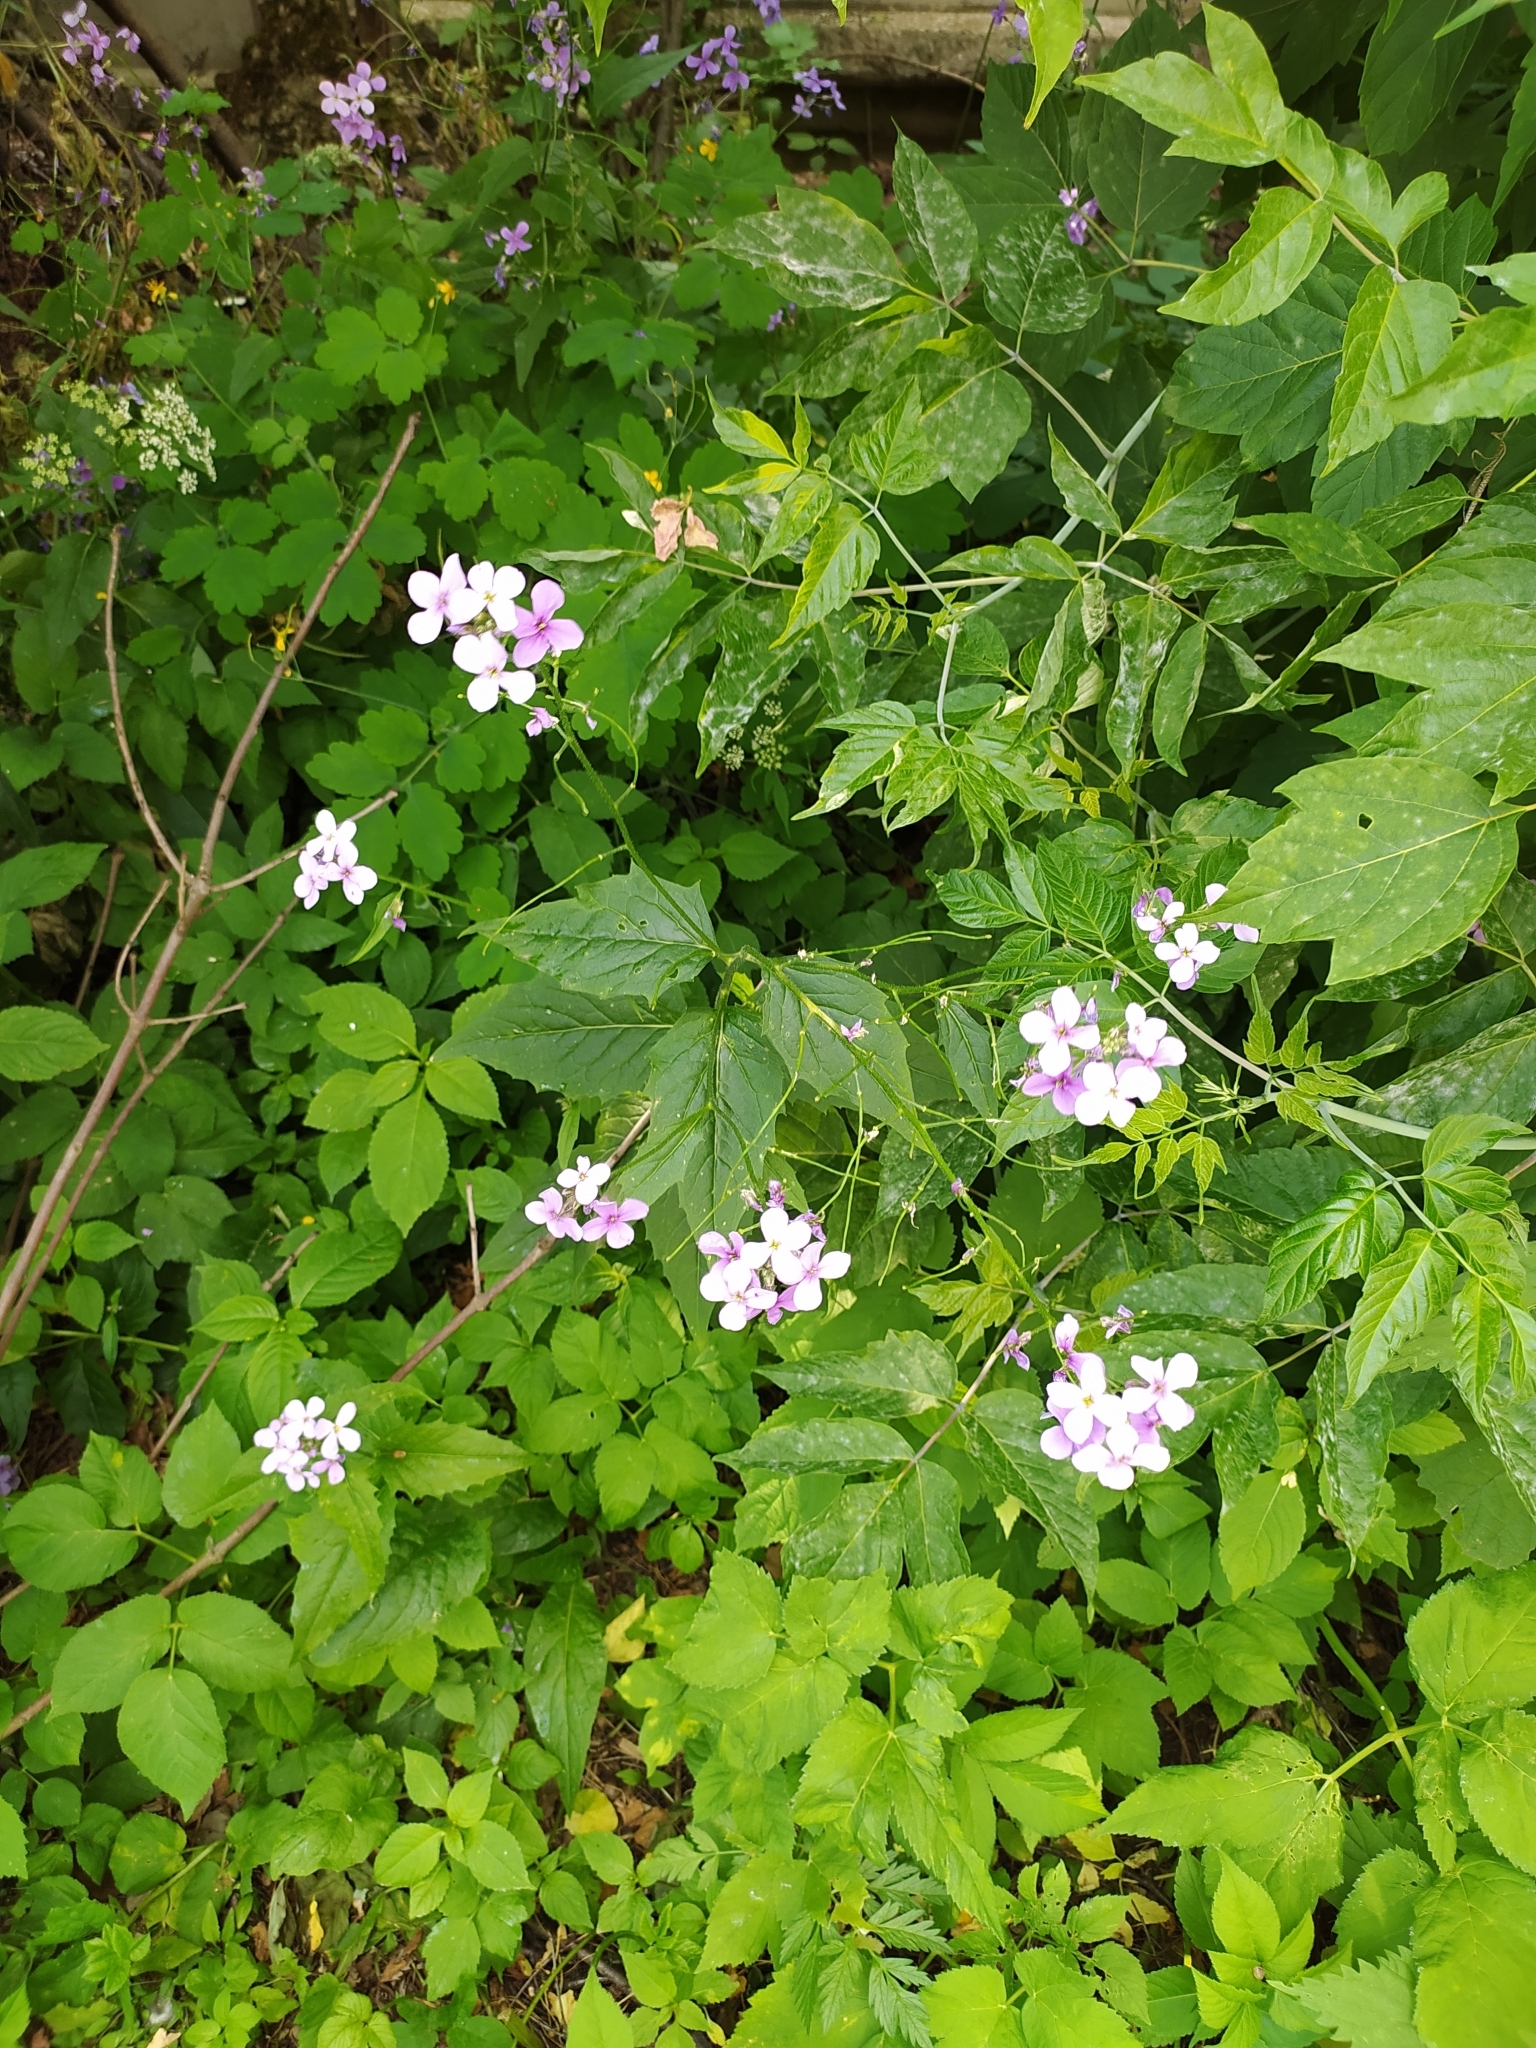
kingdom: Plantae
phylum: Tracheophyta
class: Magnoliopsida
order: Brassicales
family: Brassicaceae
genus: Hesperis
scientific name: Hesperis matronalis
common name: Dame's-violet
